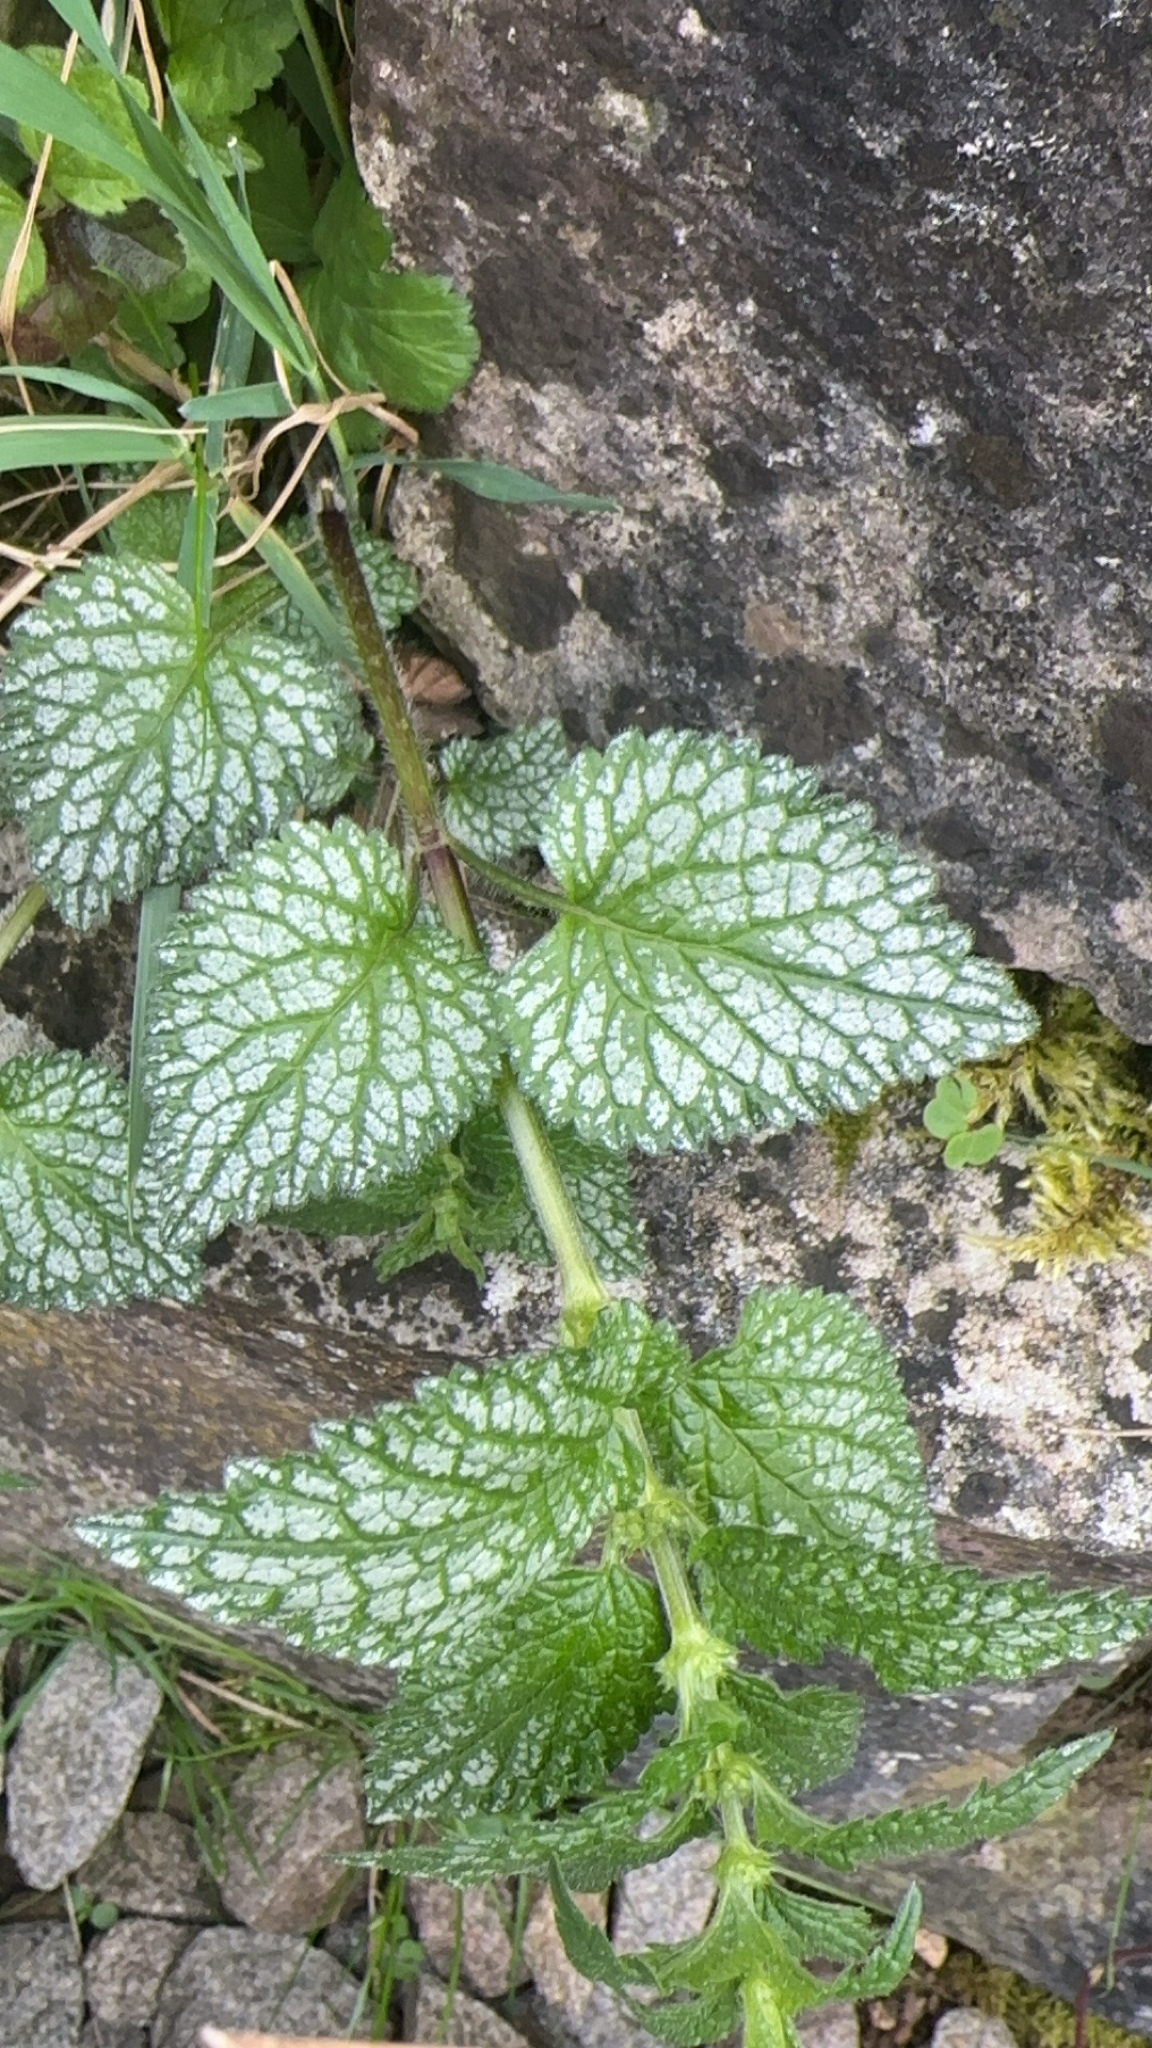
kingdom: Plantae
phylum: Tracheophyta
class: Magnoliopsida
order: Lamiales
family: Lamiaceae
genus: Lamium
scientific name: Lamium galeobdolon
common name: Yellow archangel
